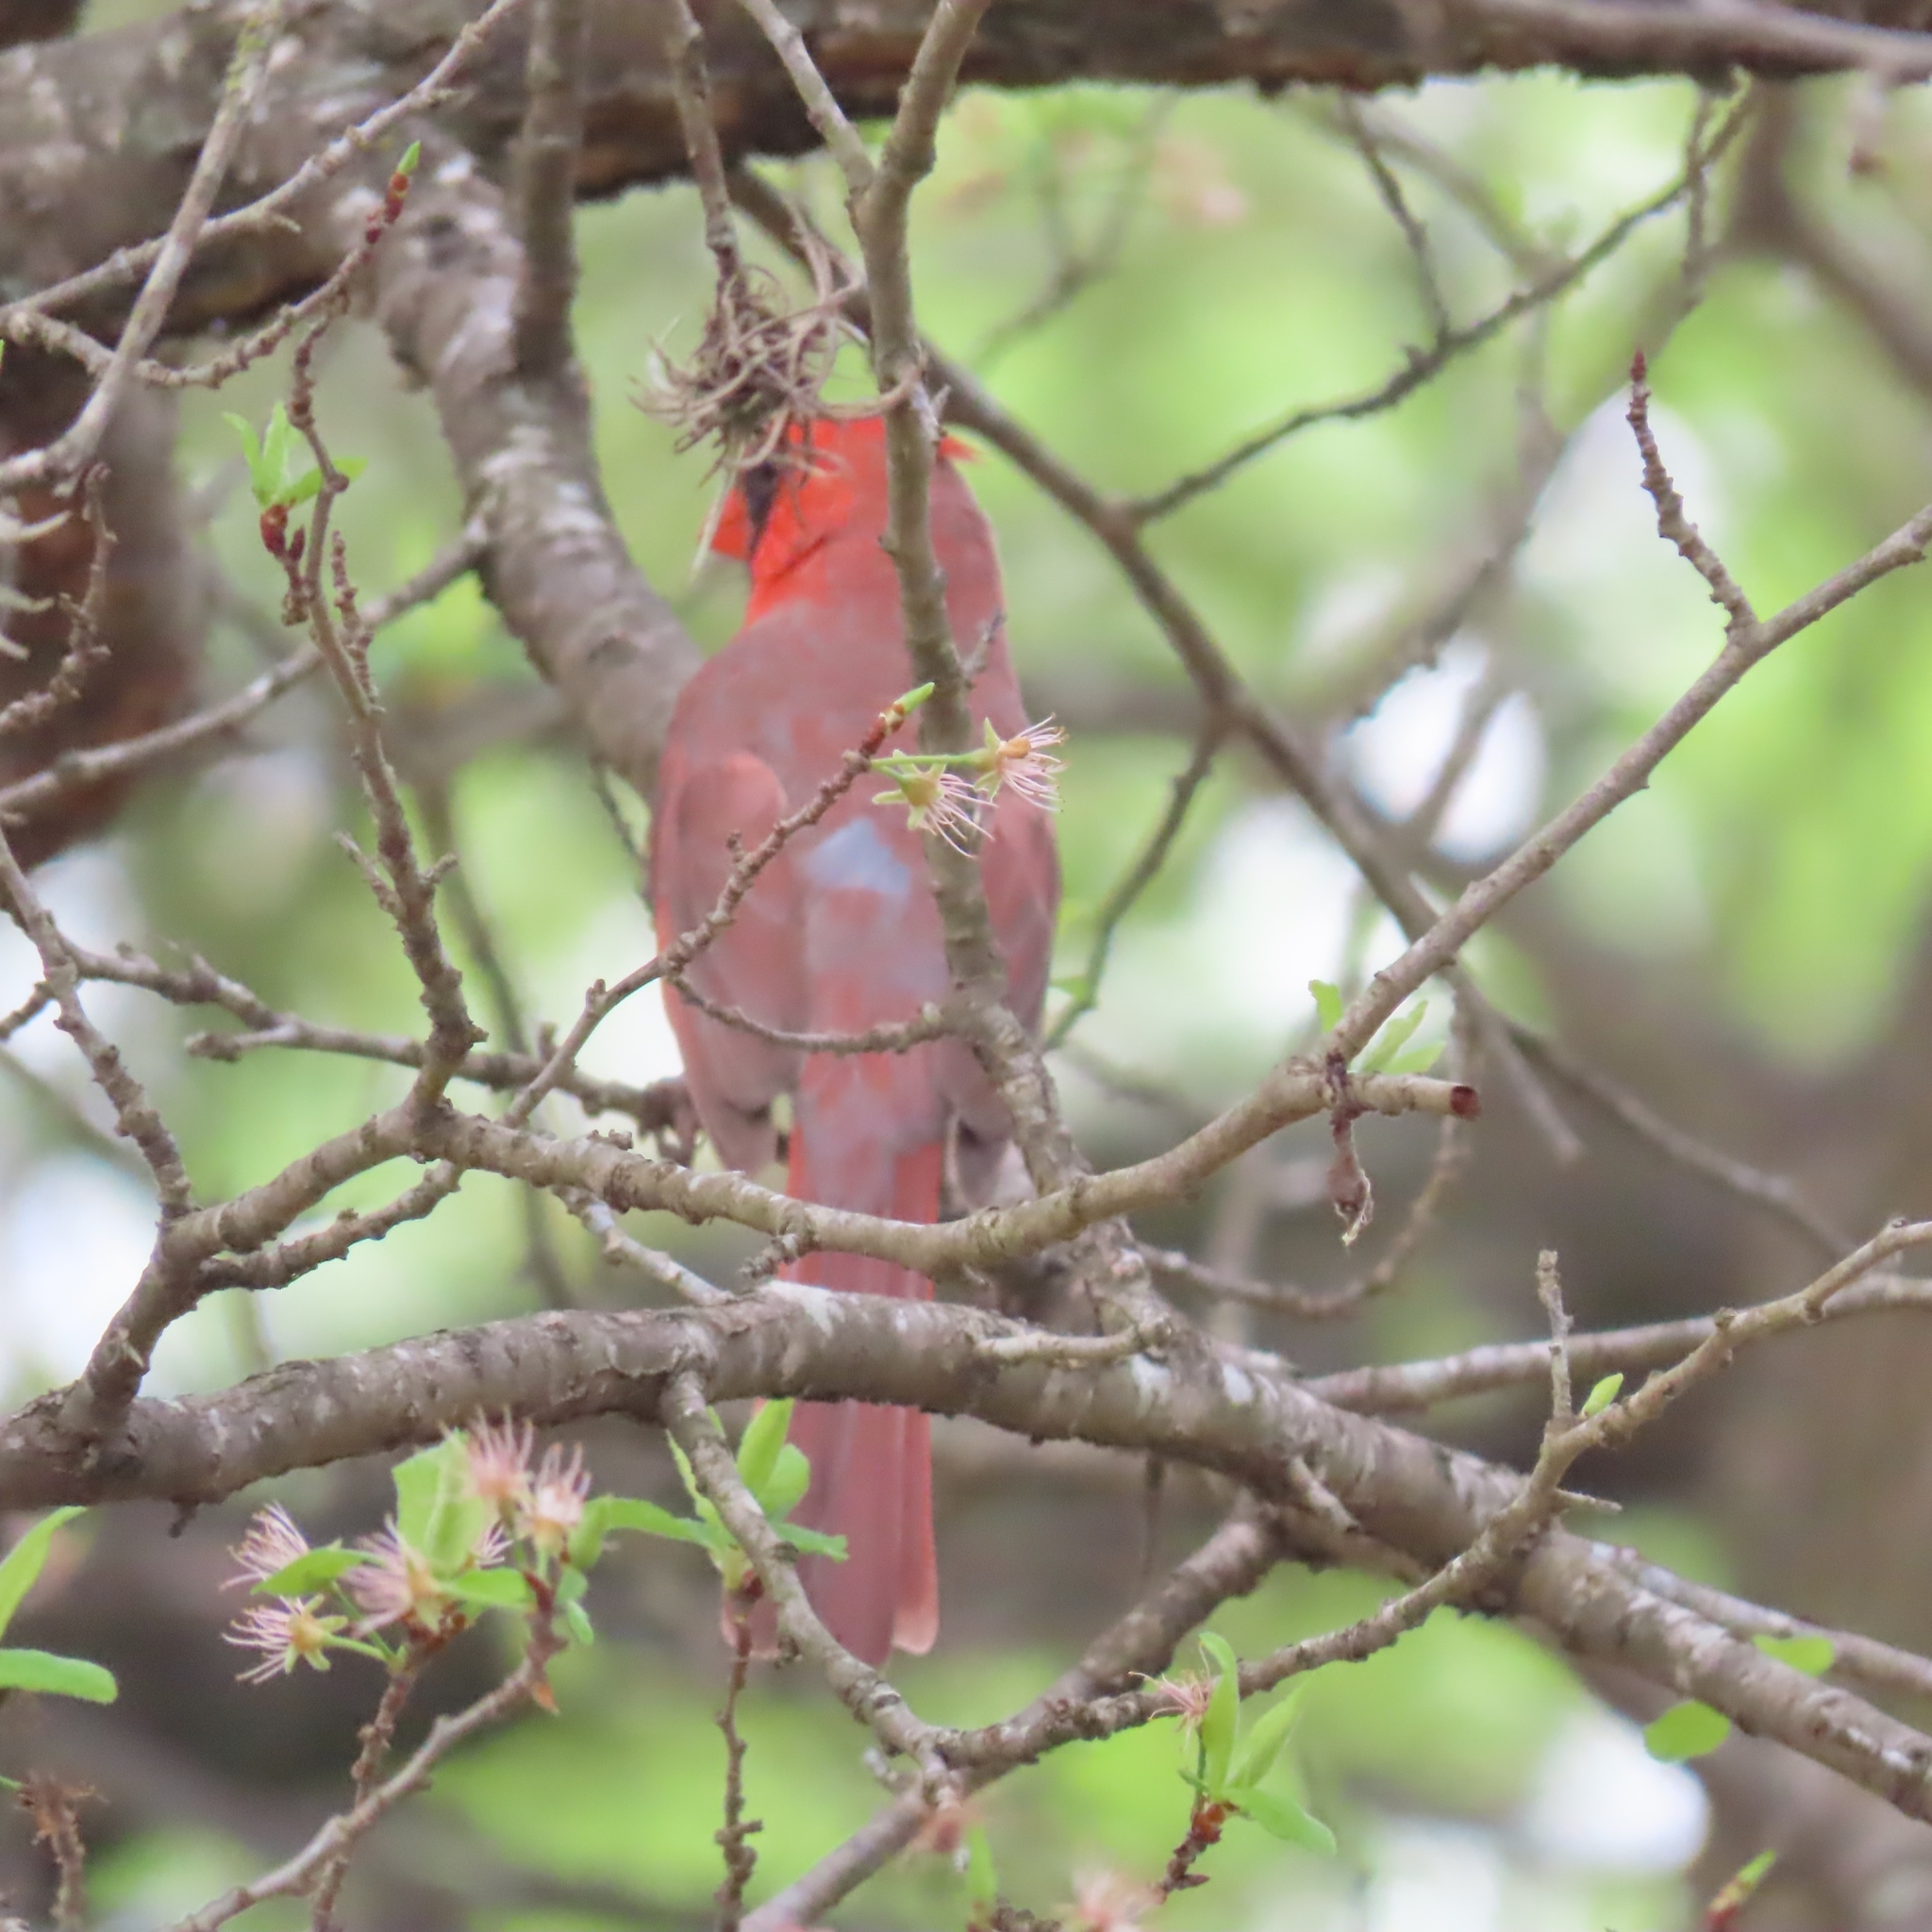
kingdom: Animalia
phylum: Chordata
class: Aves
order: Passeriformes
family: Cardinalidae
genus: Cardinalis
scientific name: Cardinalis cardinalis
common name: Northern cardinal
